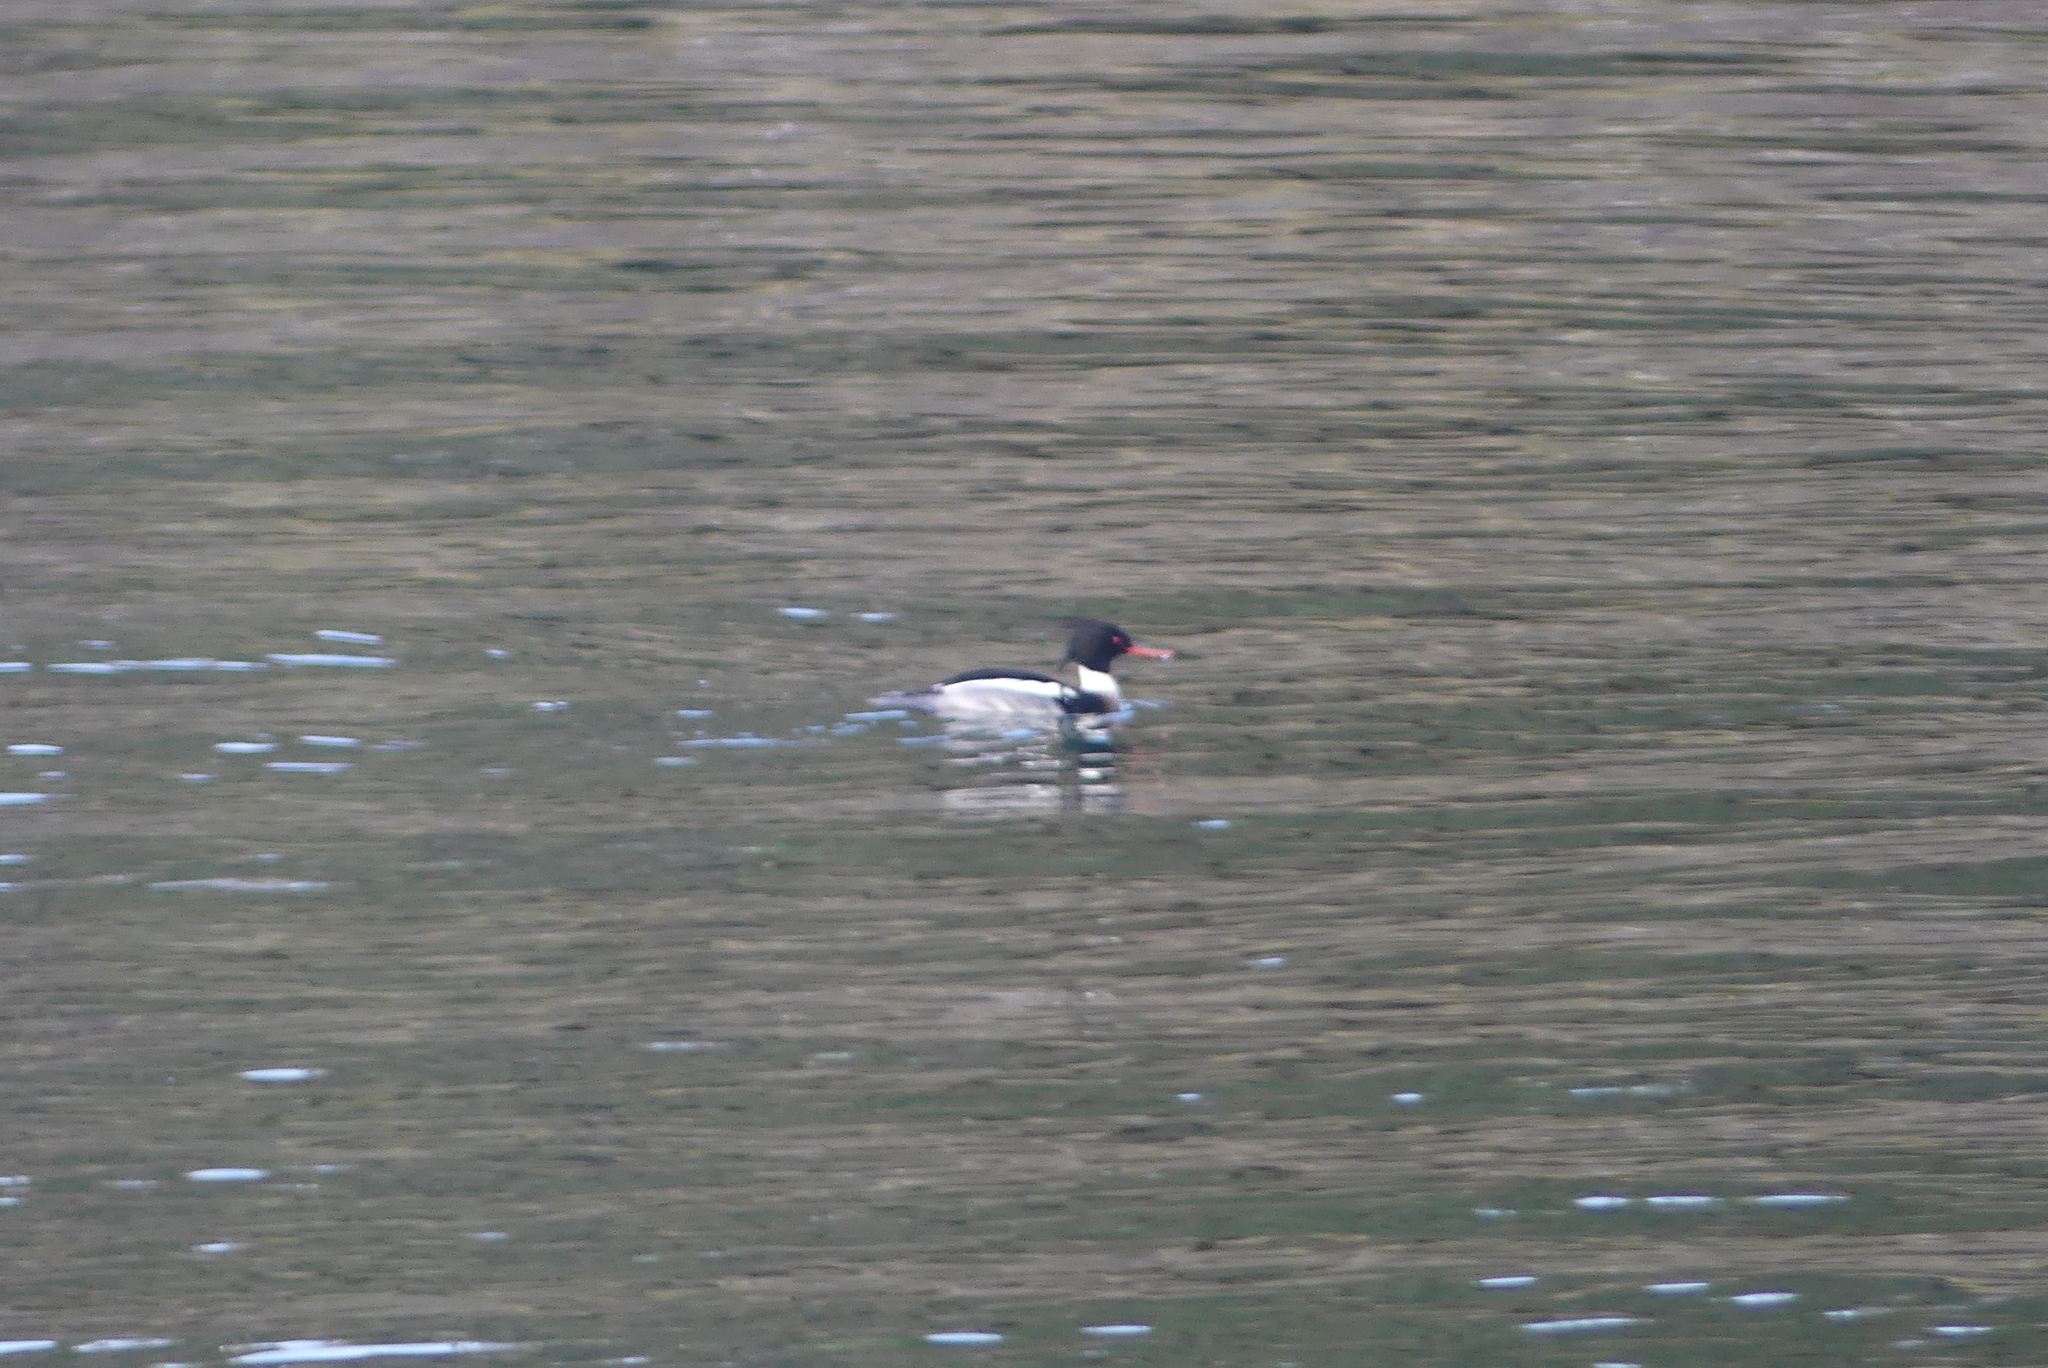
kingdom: Animalia
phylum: Chordata
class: Aves
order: Anseriformes
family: Anatidae
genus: Mergus
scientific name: Mergus serrator
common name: Red-breasted merganser
